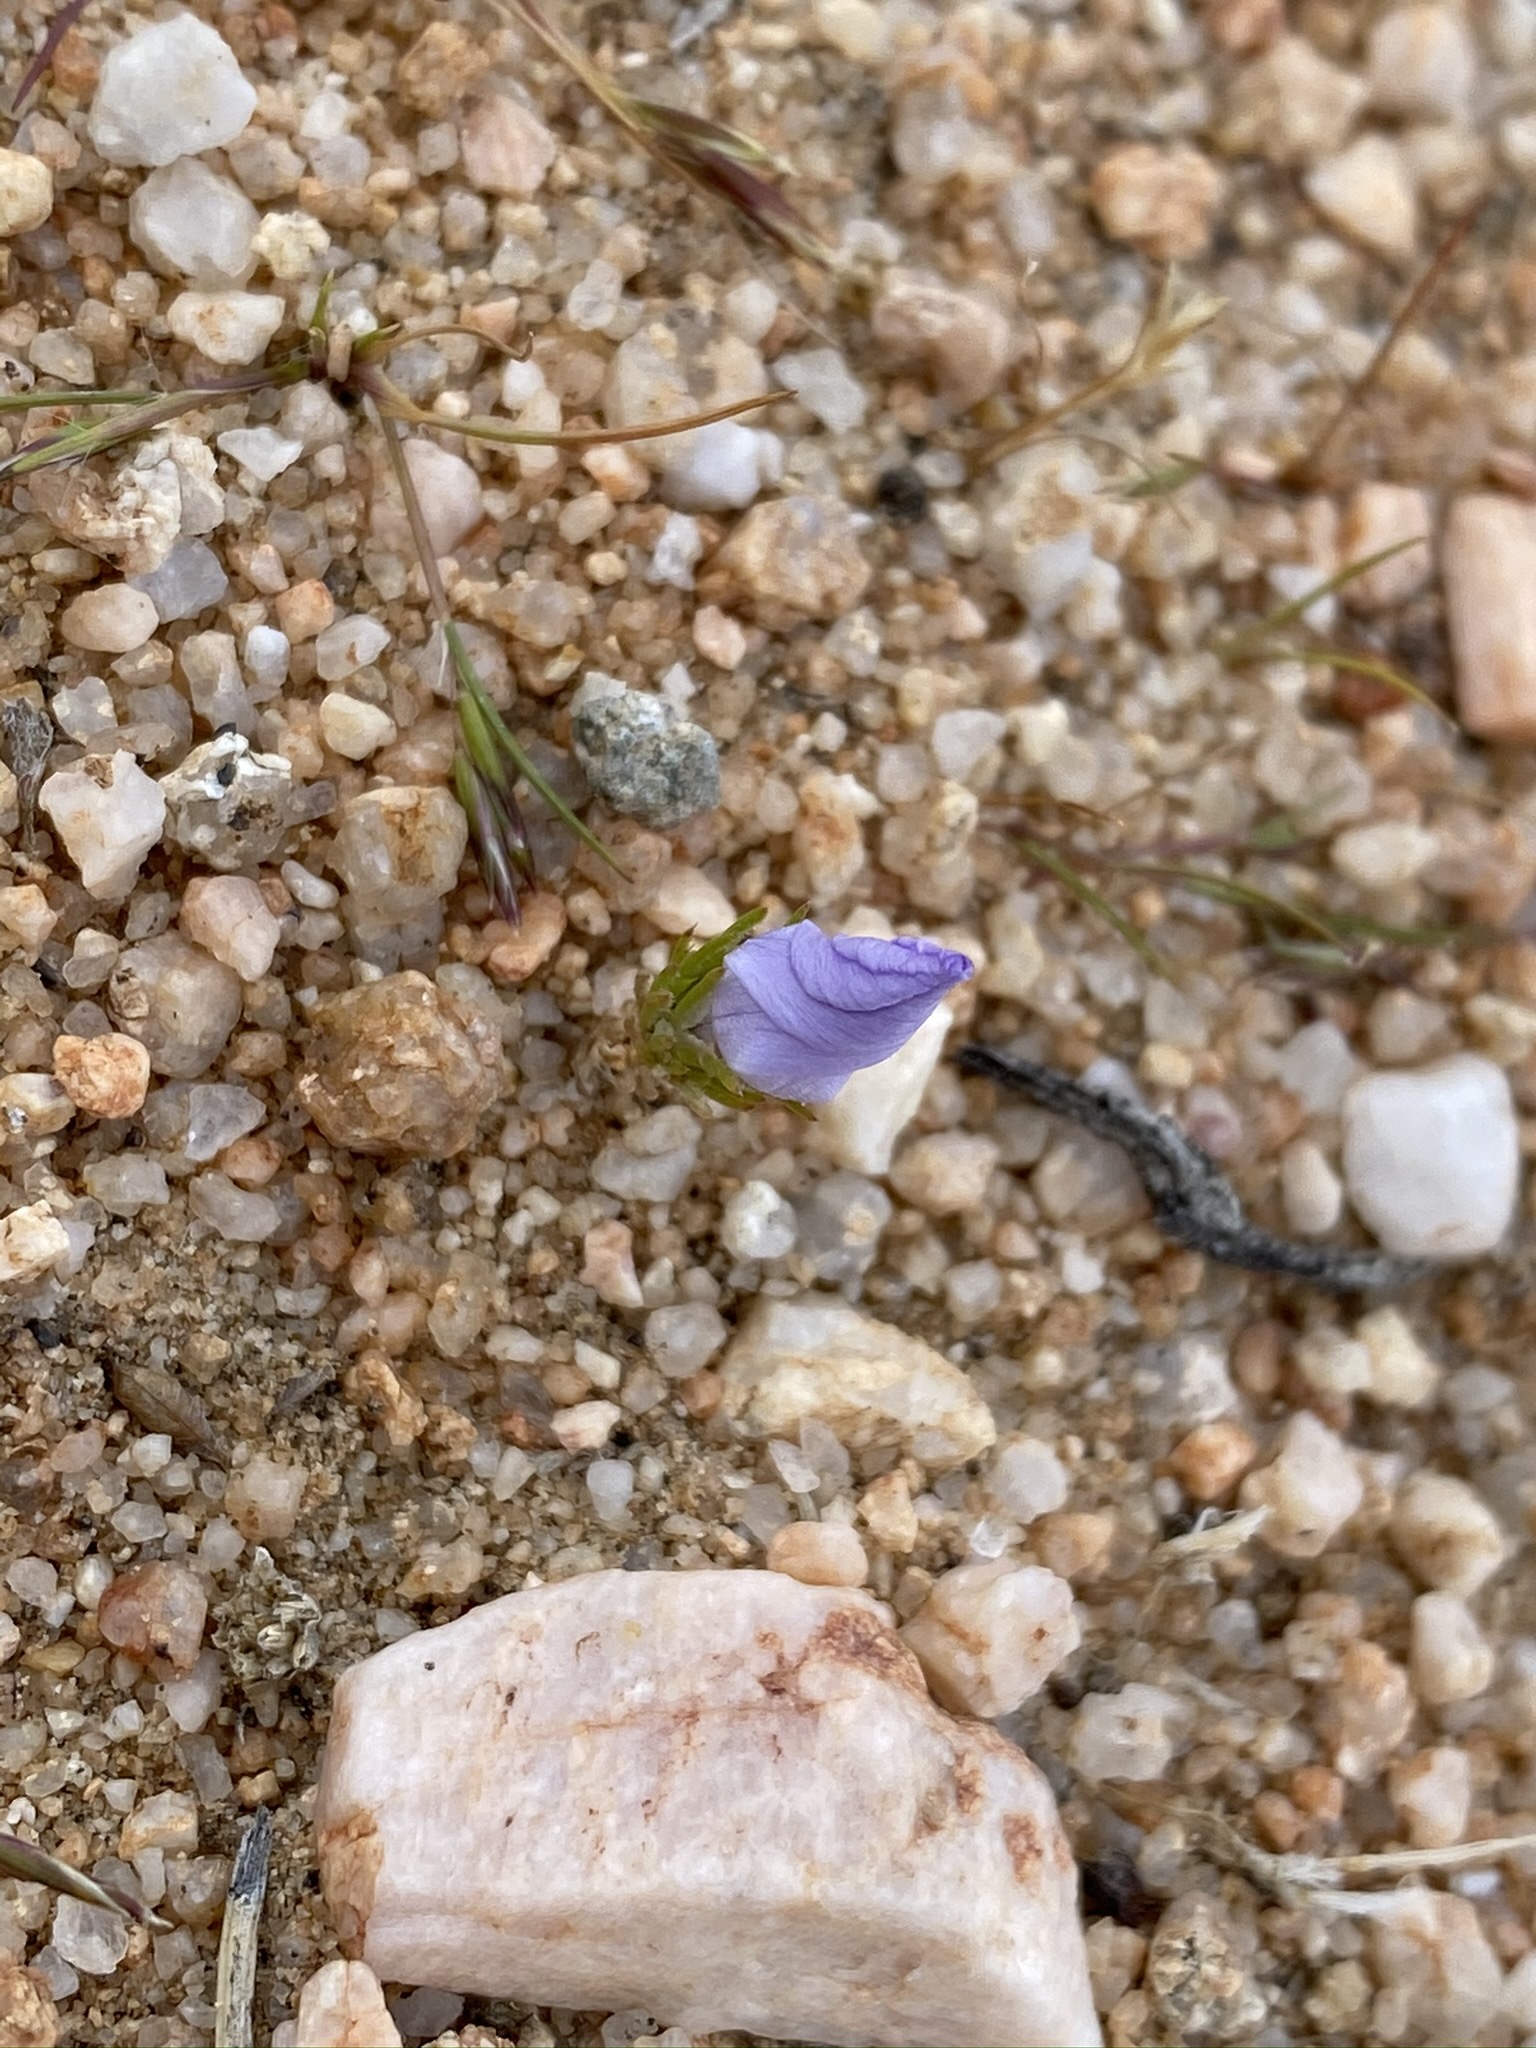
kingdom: Plantae
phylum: Tracheophyta
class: Magnoliopsida
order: Ericales
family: Polemoniaceae
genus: Linanthus
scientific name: Linanthus parryae
